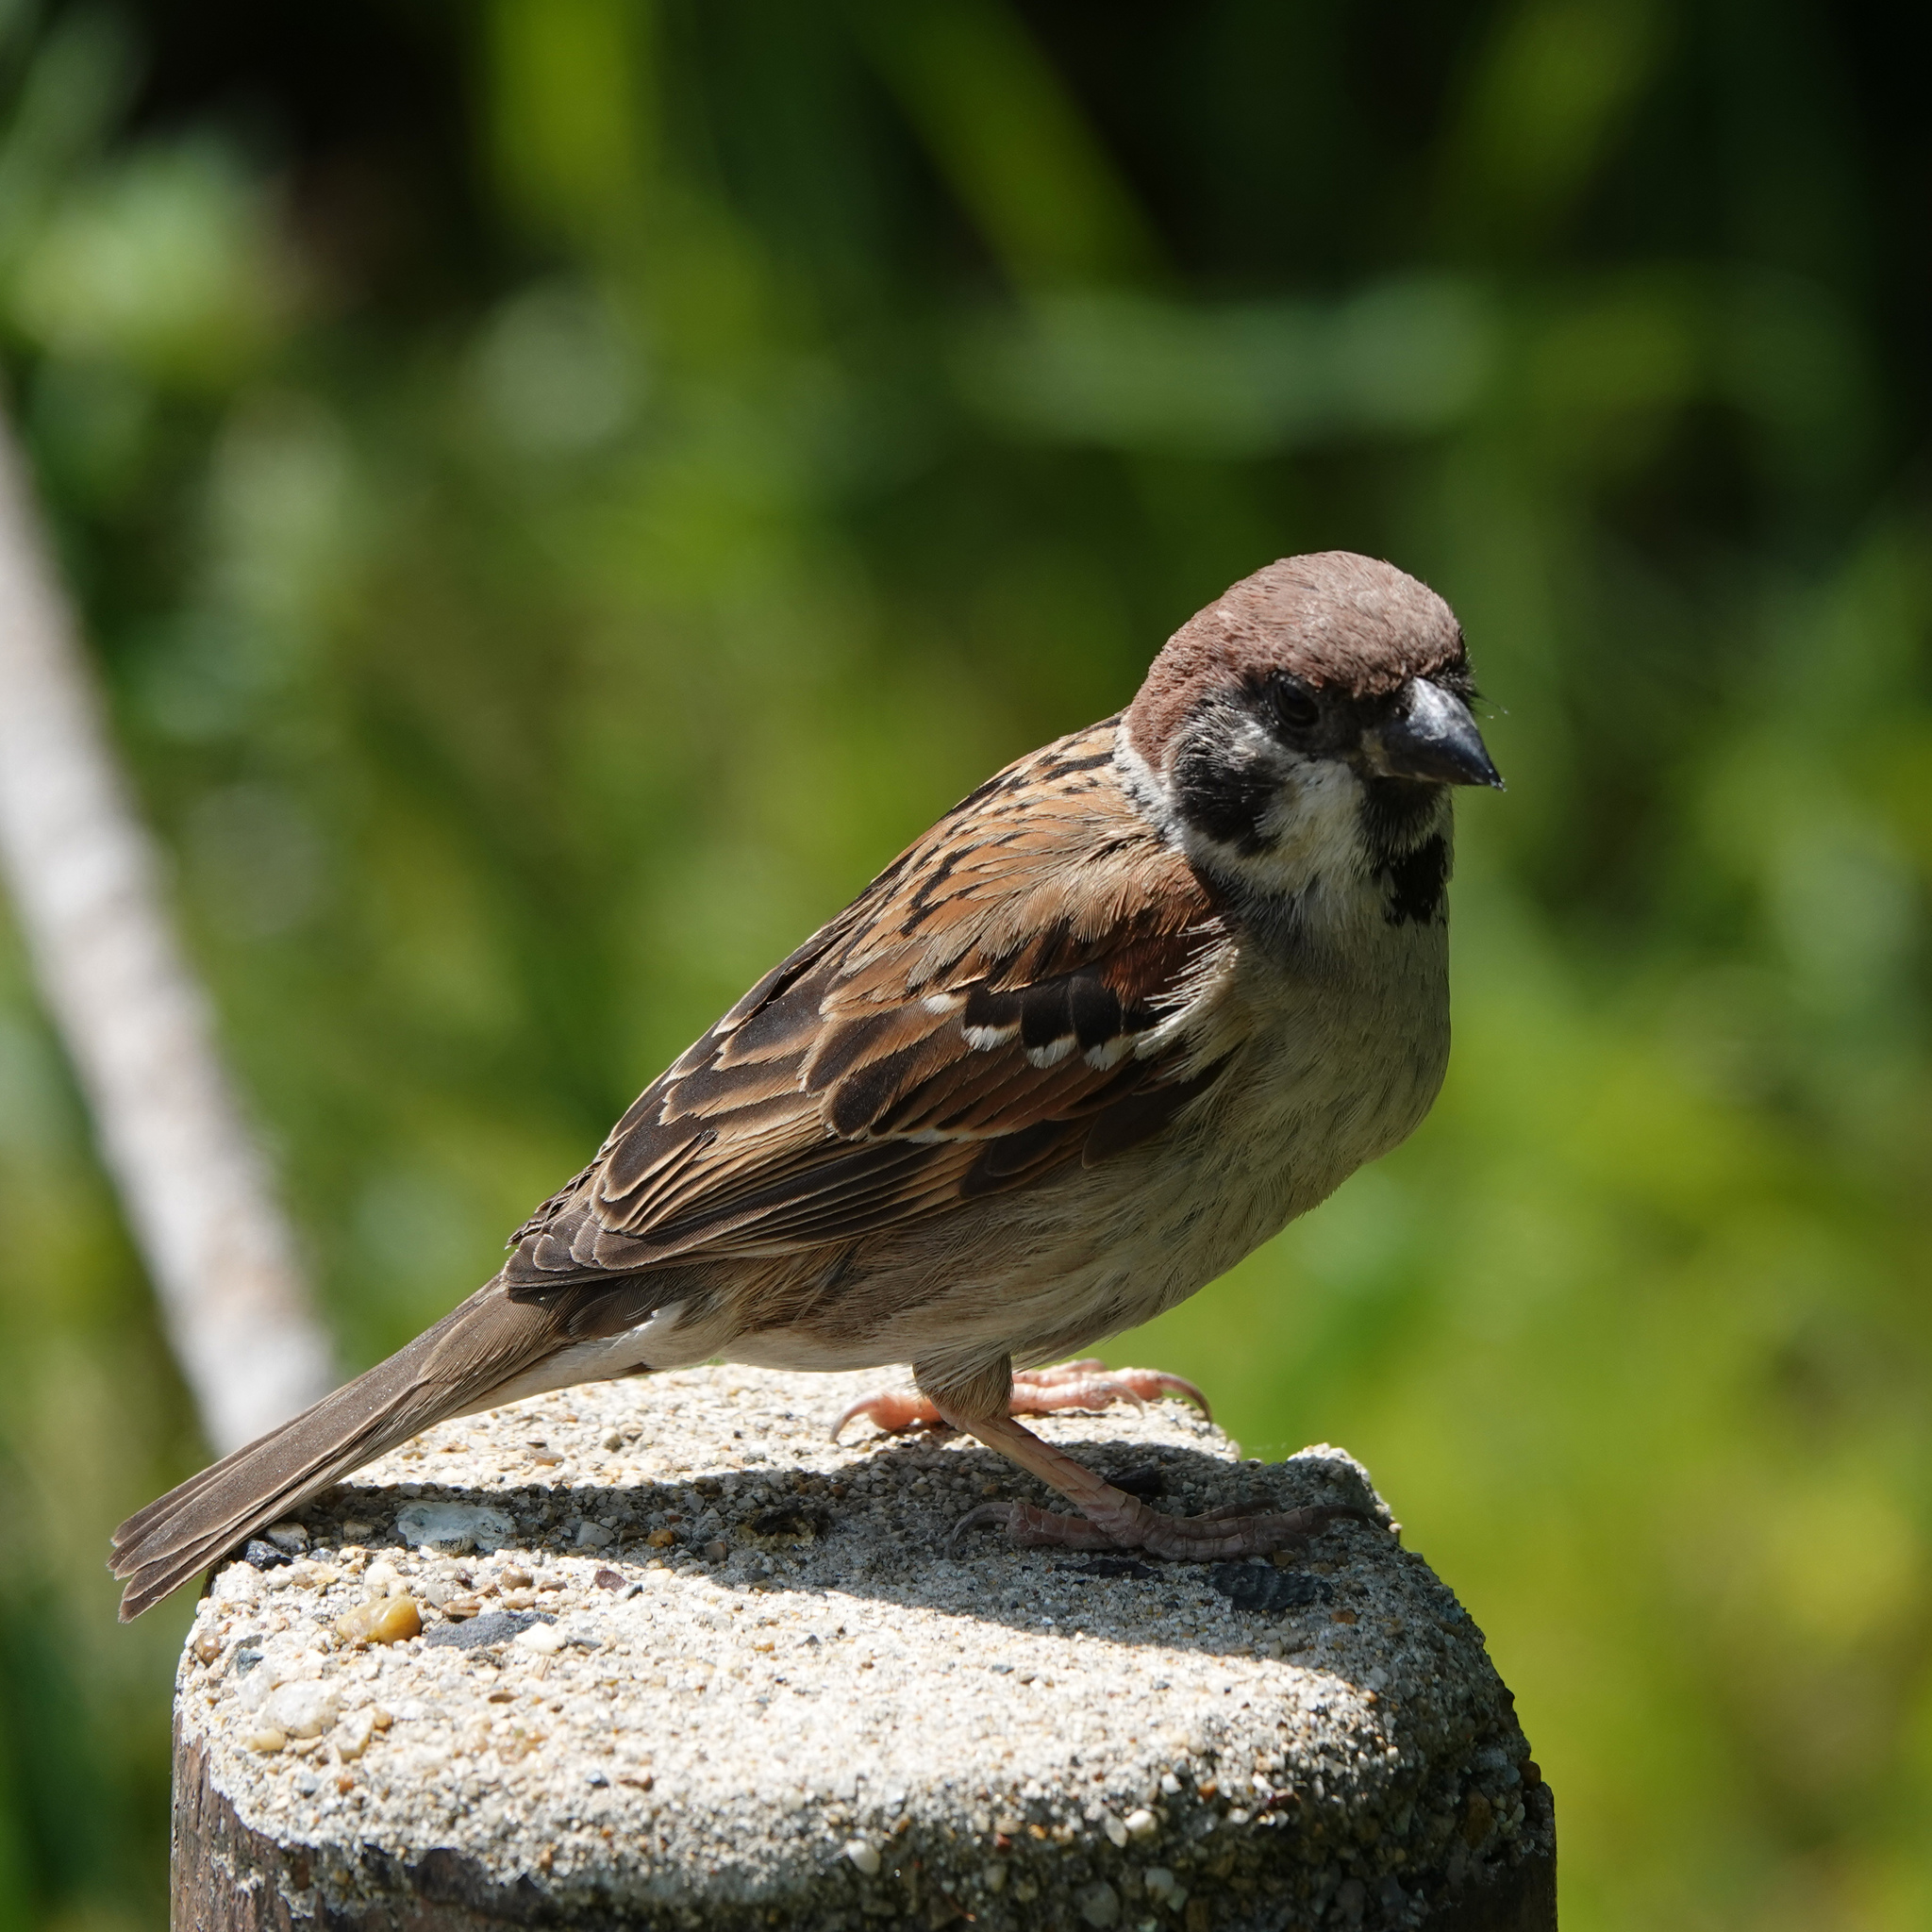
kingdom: Animalia
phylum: Chordata
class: Aves
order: Passeriformes
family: Passeridae
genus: Passer
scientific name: Passer montanus
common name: Eurasian tree sparrow
